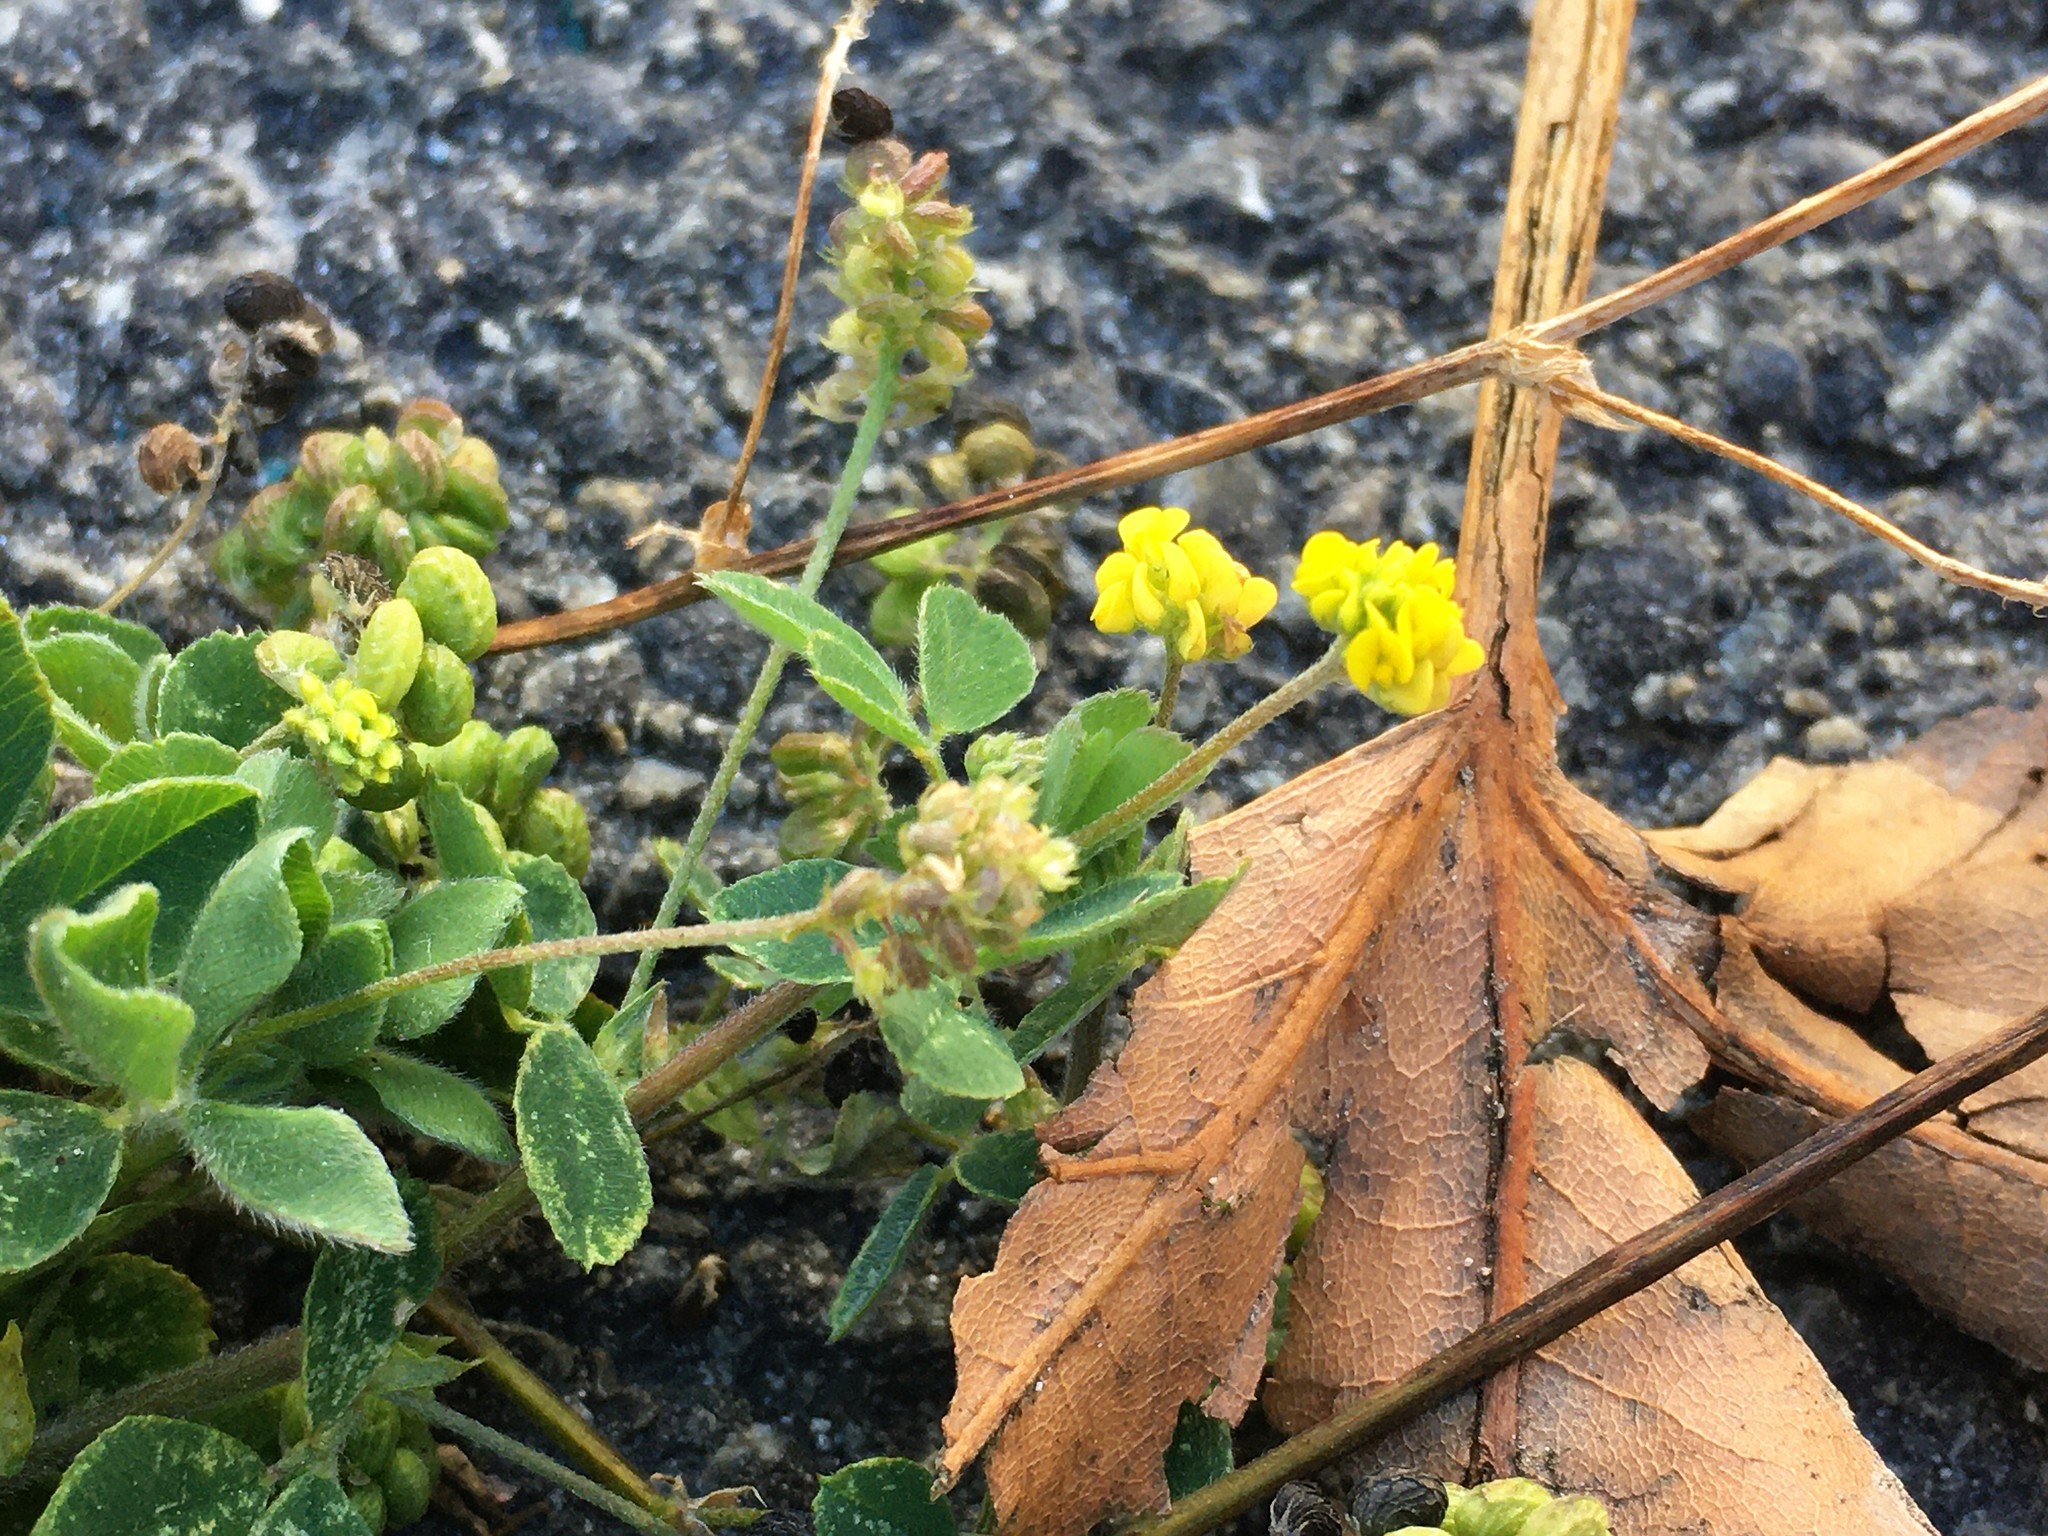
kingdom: Plantae
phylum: Tracheophyta
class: Magnoliopsida
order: Fabales
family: Fabaceae
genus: Medicago
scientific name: Medicago lupulina
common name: Black medick
